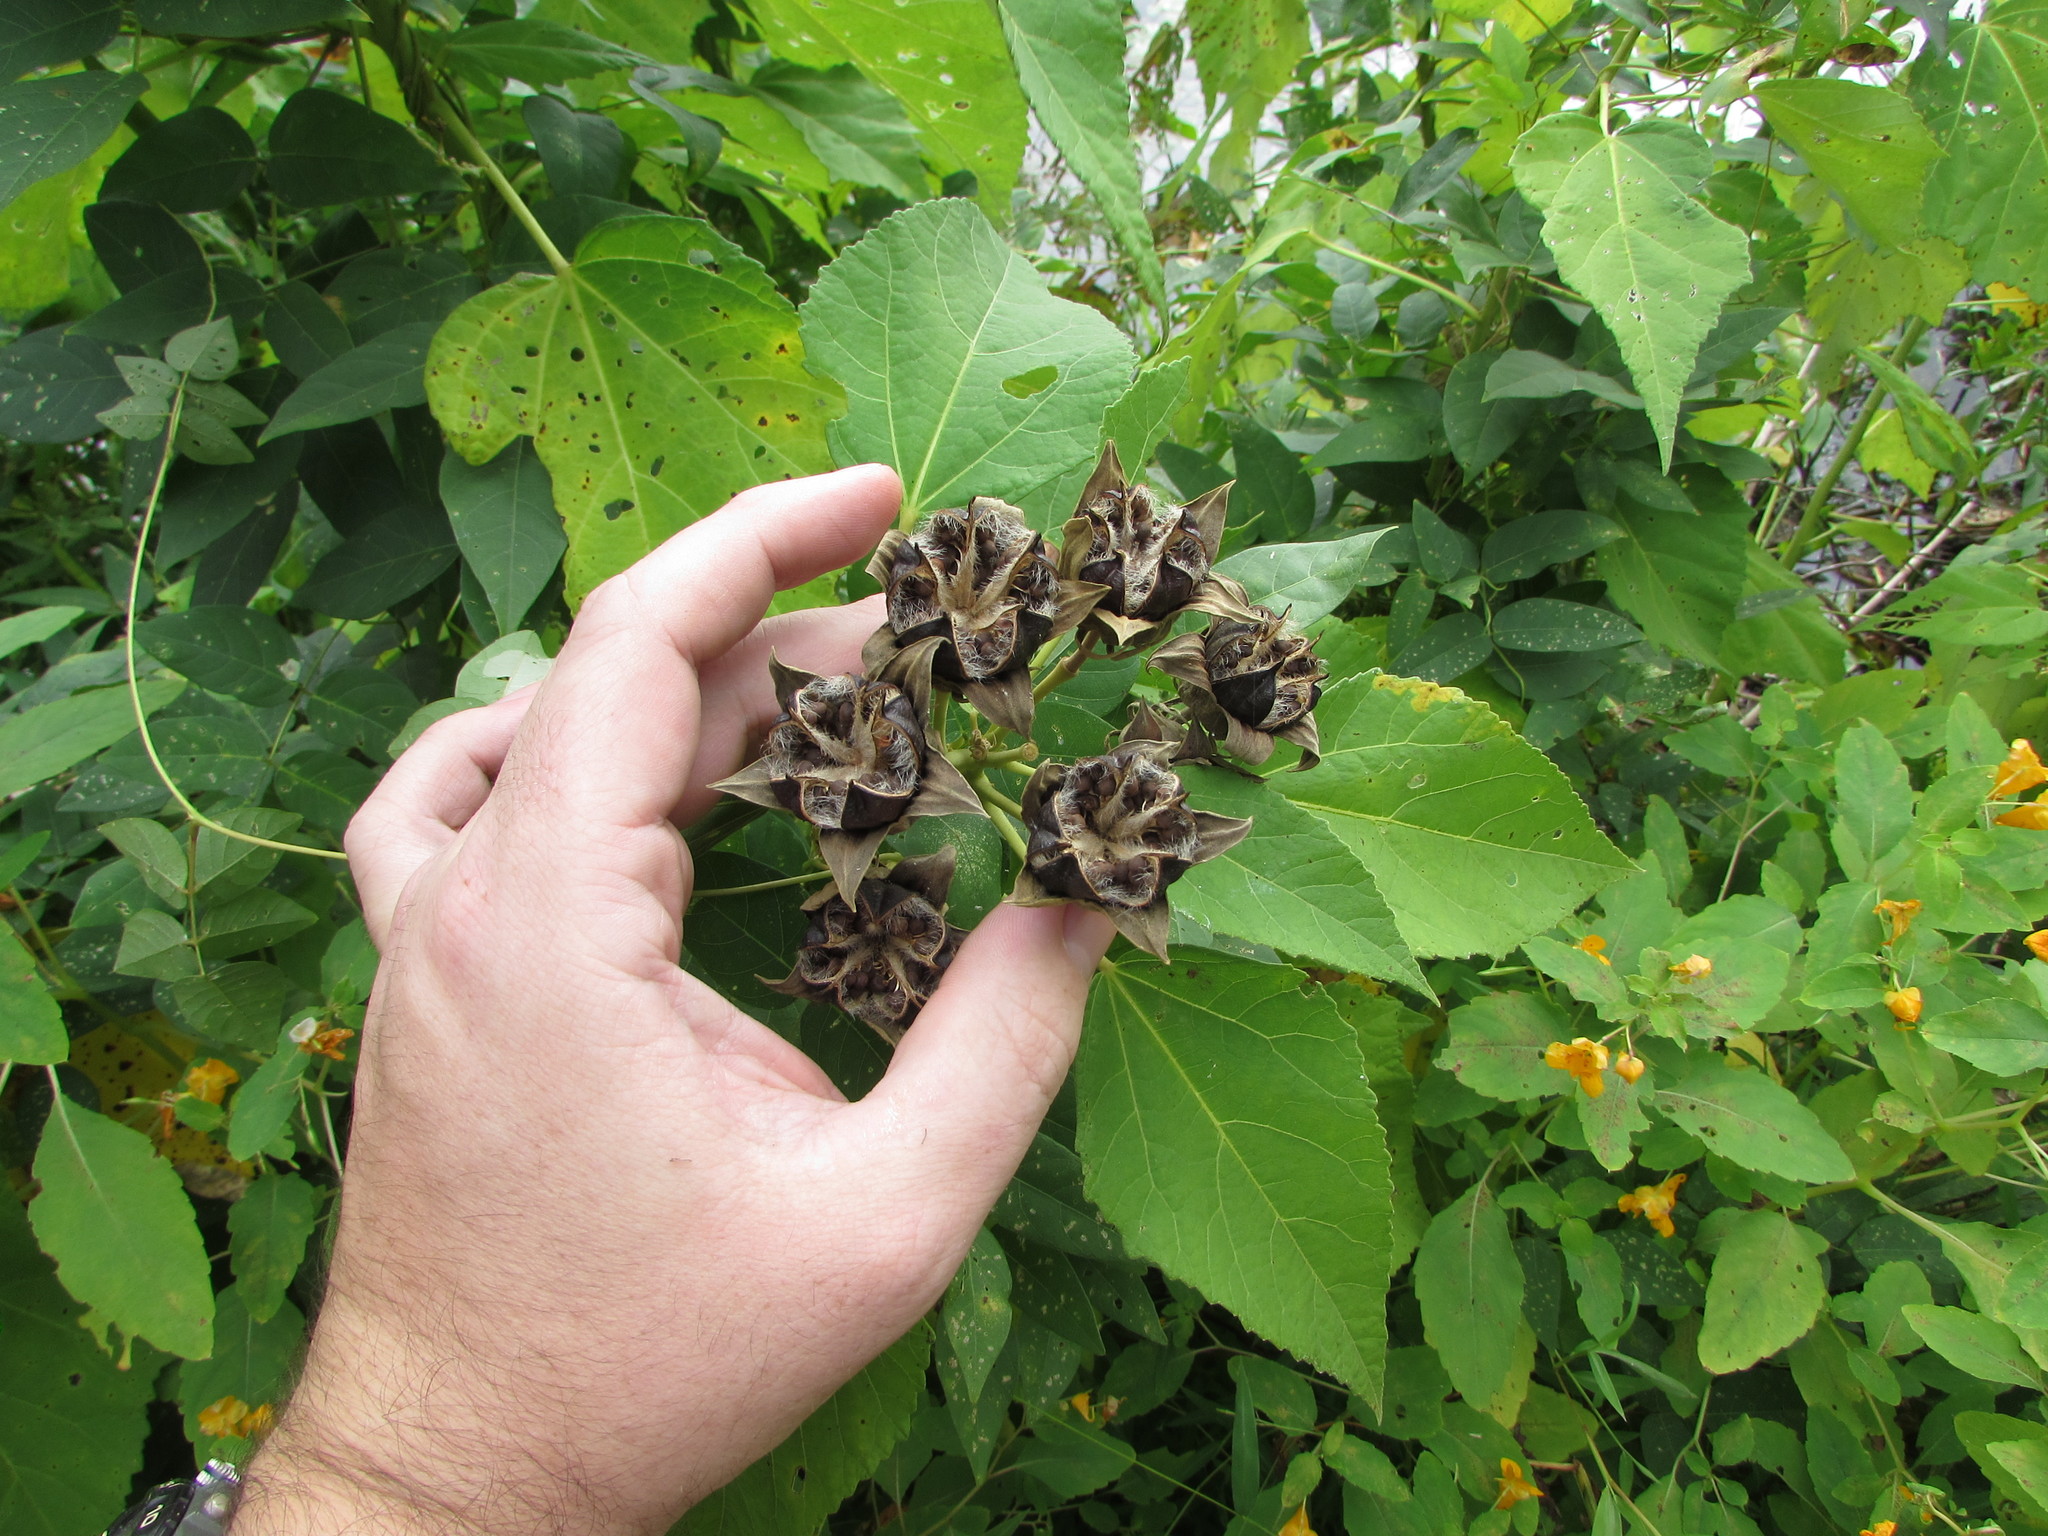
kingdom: Plantae
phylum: Tracheophyta
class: Magnoliopsida
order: Malvales
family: Malvaceae
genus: Hibiscus
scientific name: Hibiscus moscheutos
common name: Common rose-mallow
